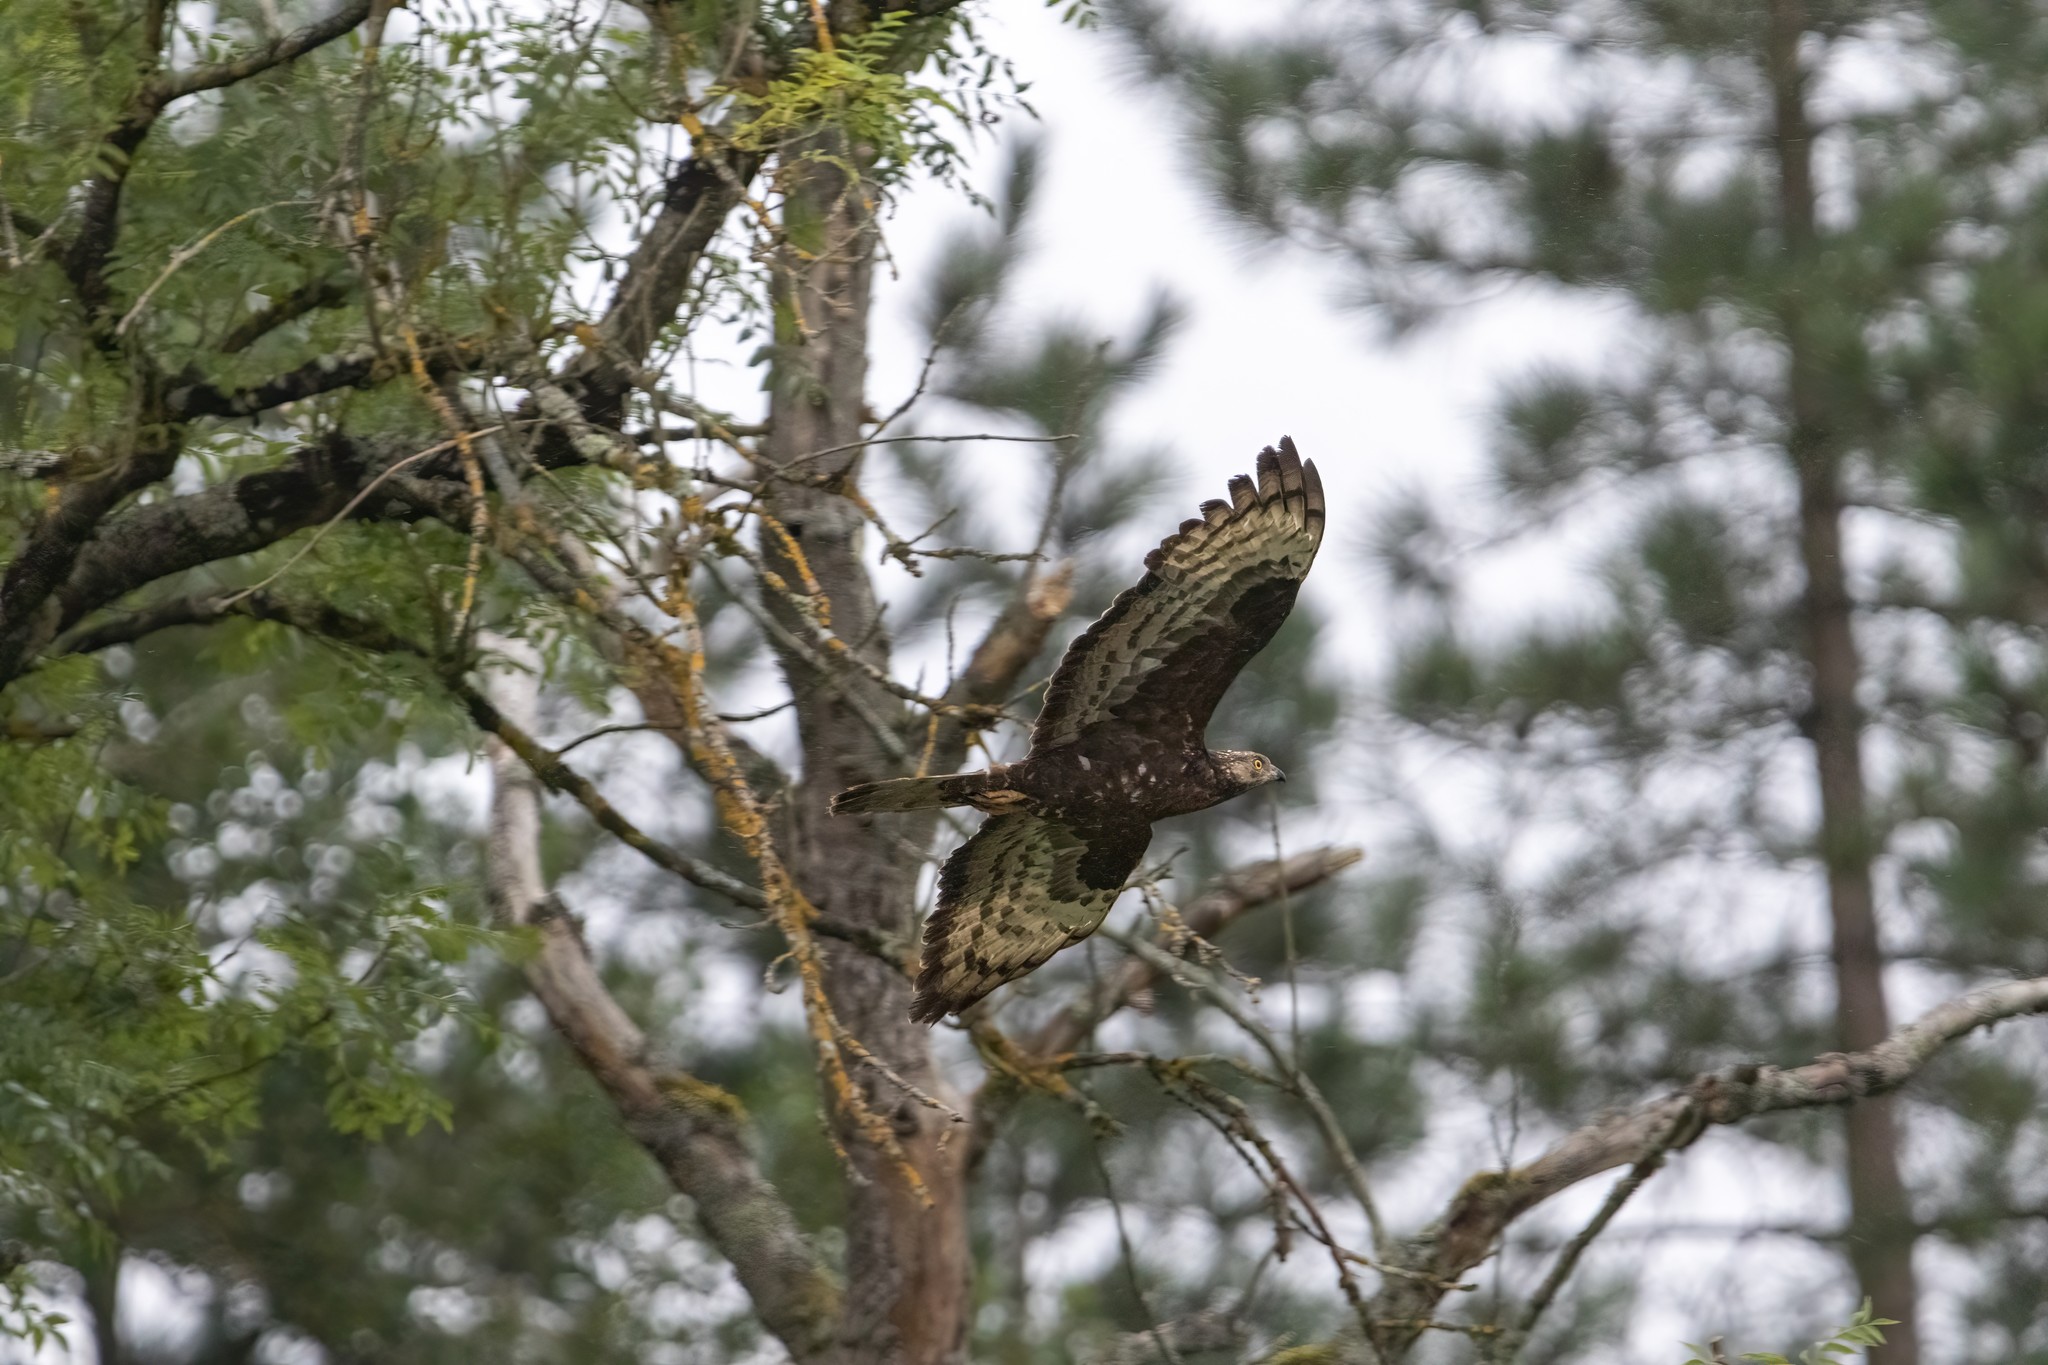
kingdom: Animalia
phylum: Chordata
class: Aves
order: Accipitriformes
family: Accipitridae
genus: Pernis
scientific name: Pernis apivorus
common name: European honey buzzard
